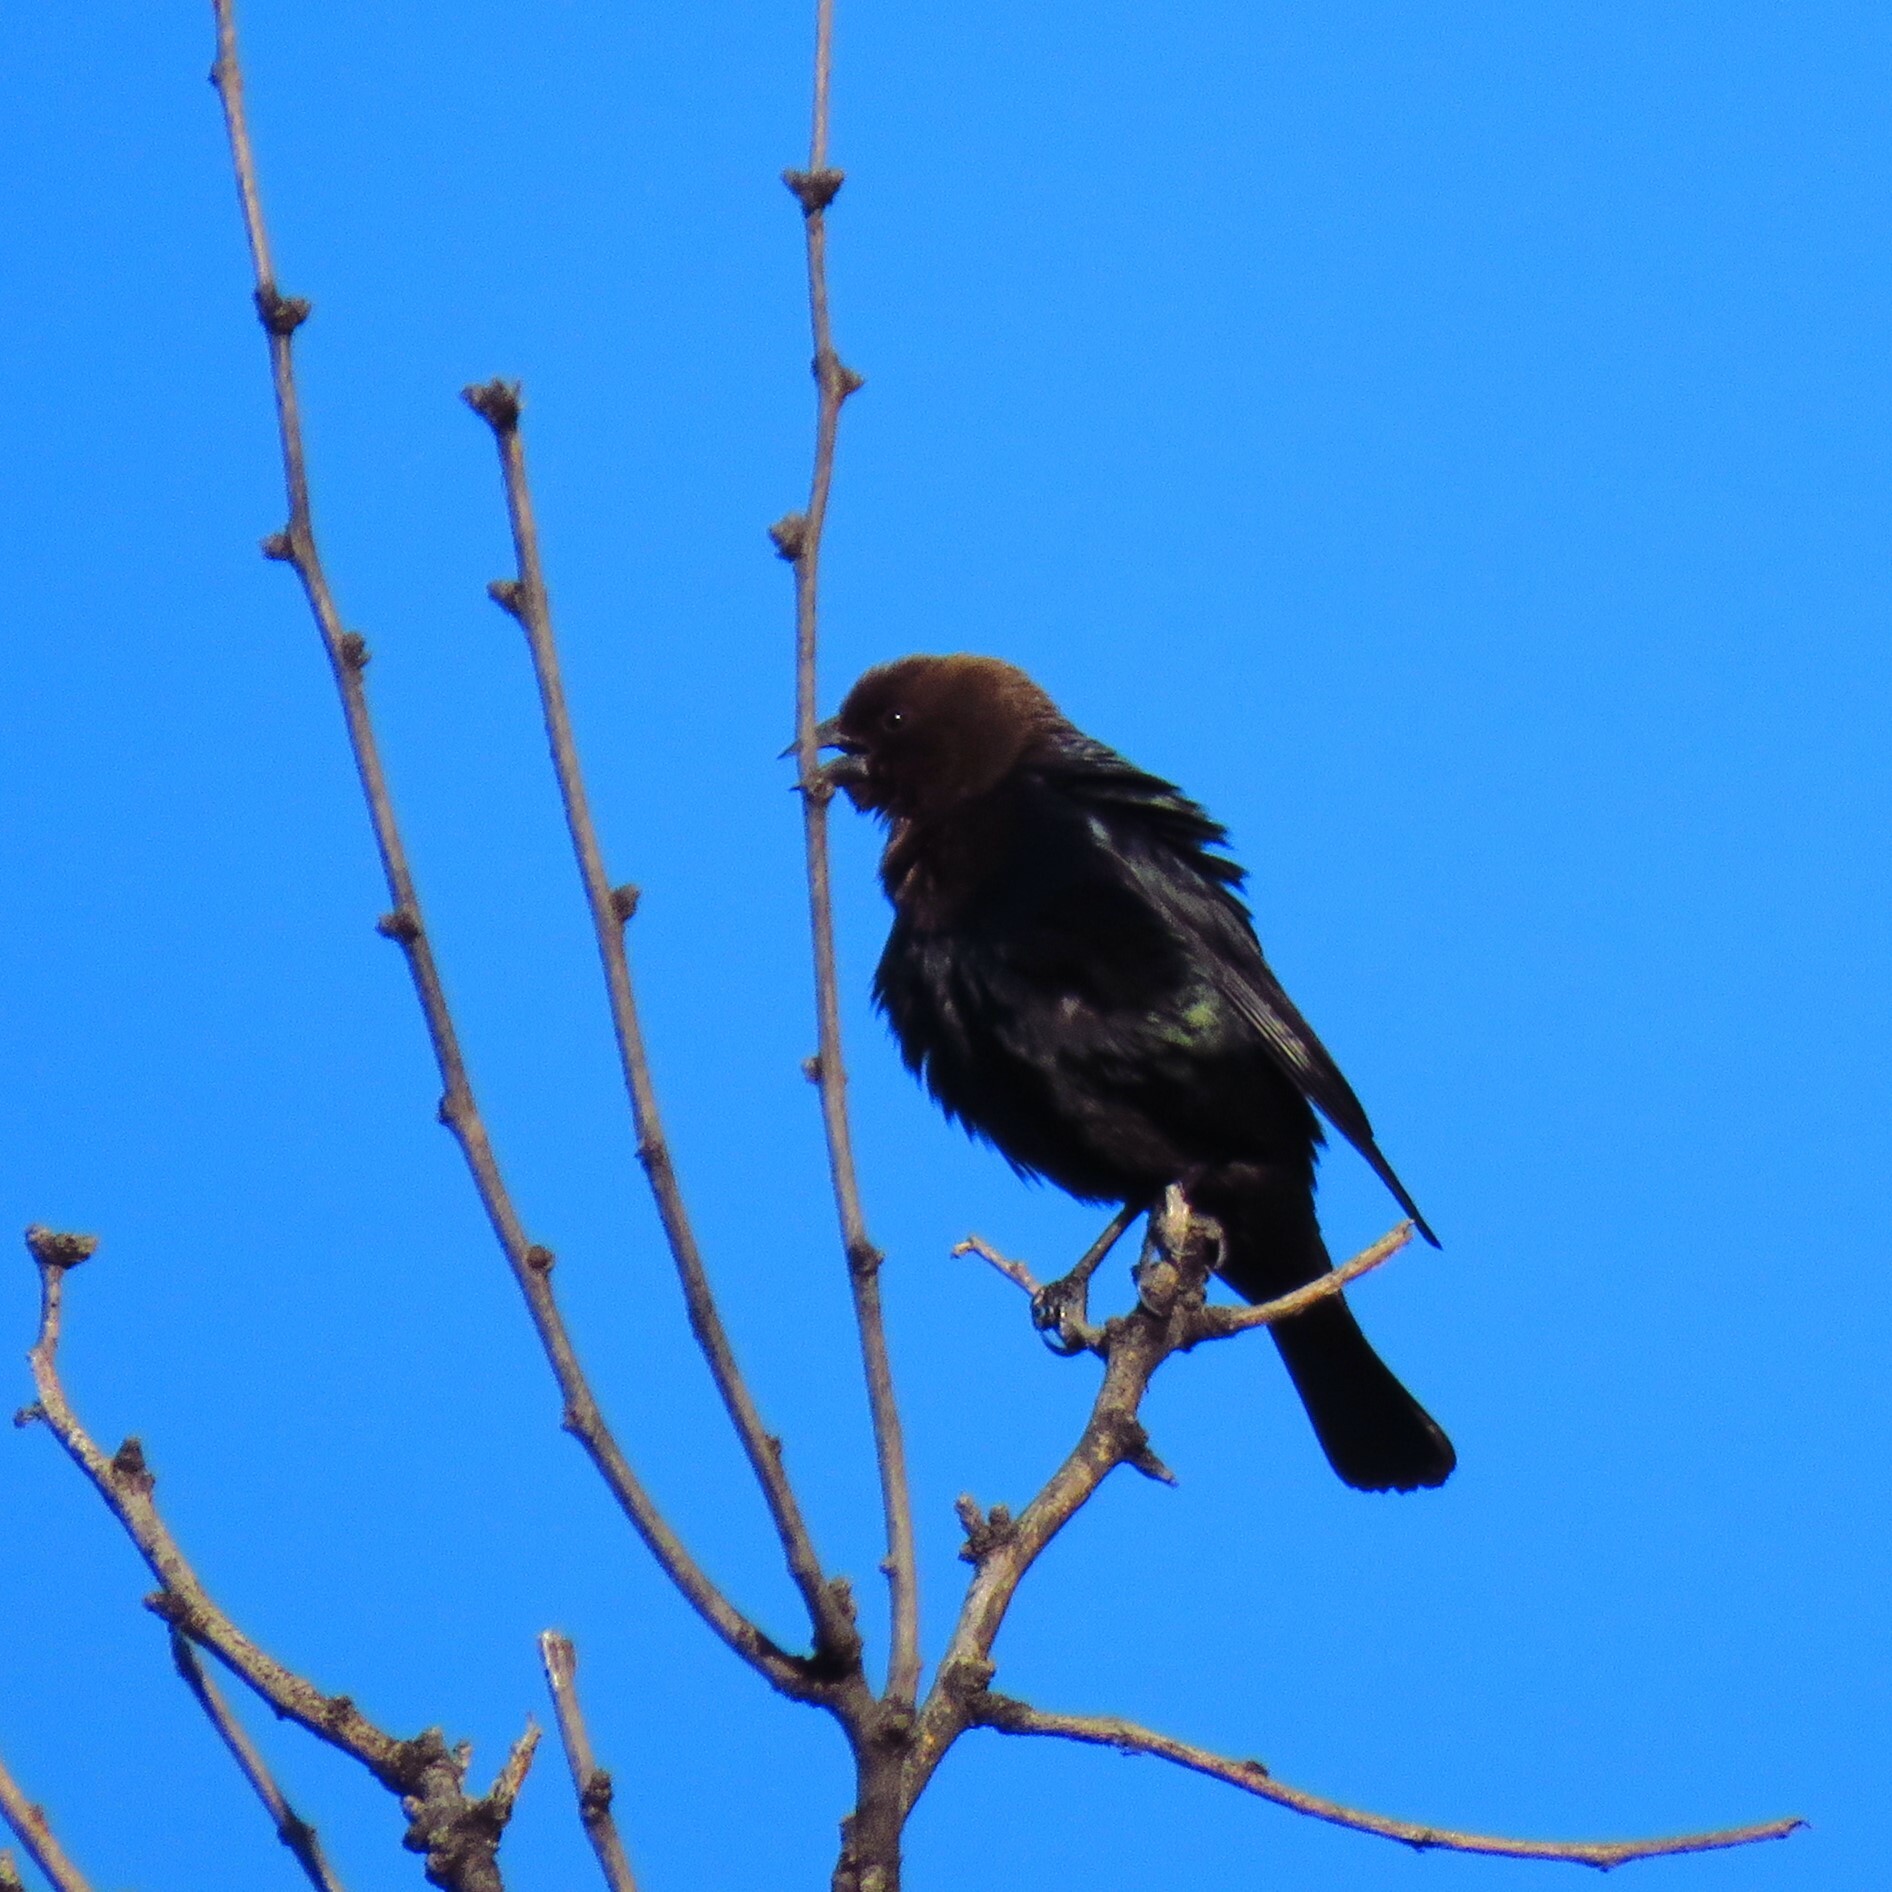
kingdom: Animalia
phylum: Chordata
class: Aves
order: Passeriformes
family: Icteridae
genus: Molothrus
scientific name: Molothrus ater
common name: Brown-headed cowbird
